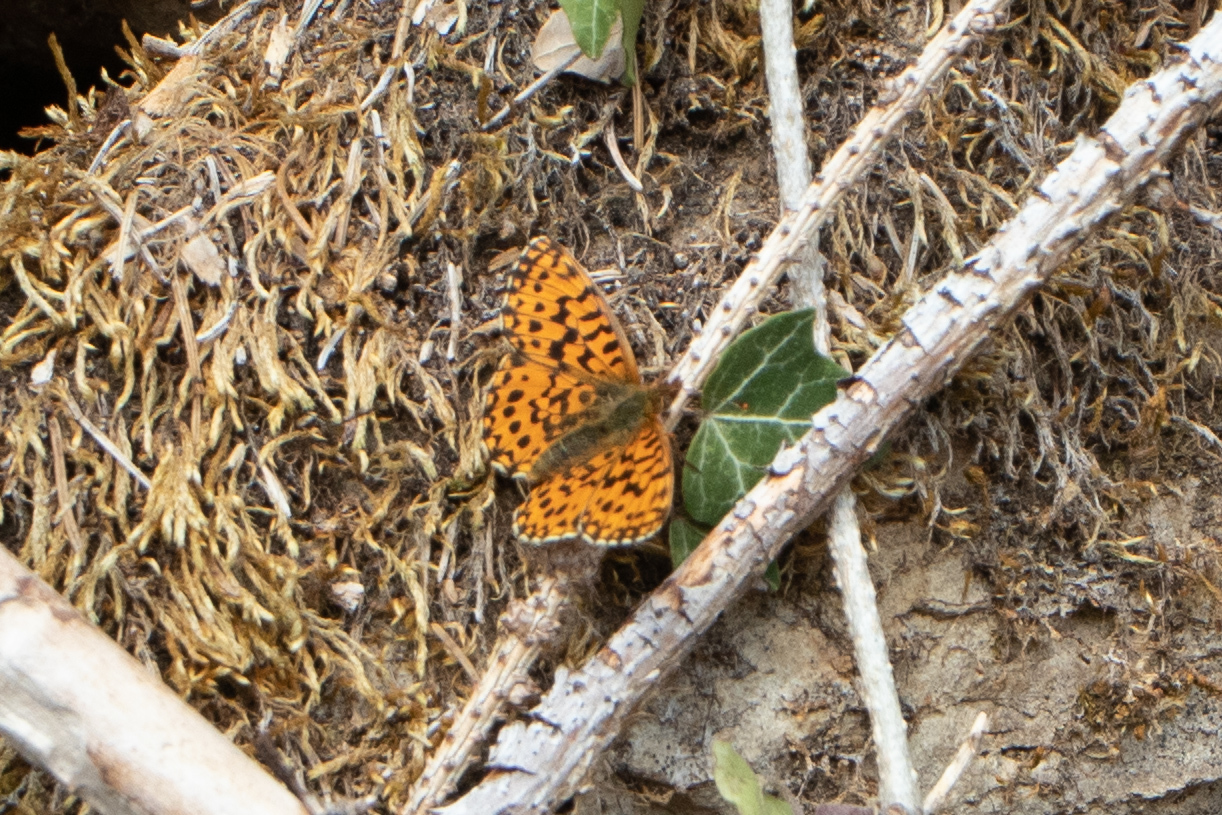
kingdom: Animalia
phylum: Arthropoda
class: Insecta
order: Lepidoptera
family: Nymphalidae
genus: Boloria
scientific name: Boloria dia
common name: Weaver's fritillary
